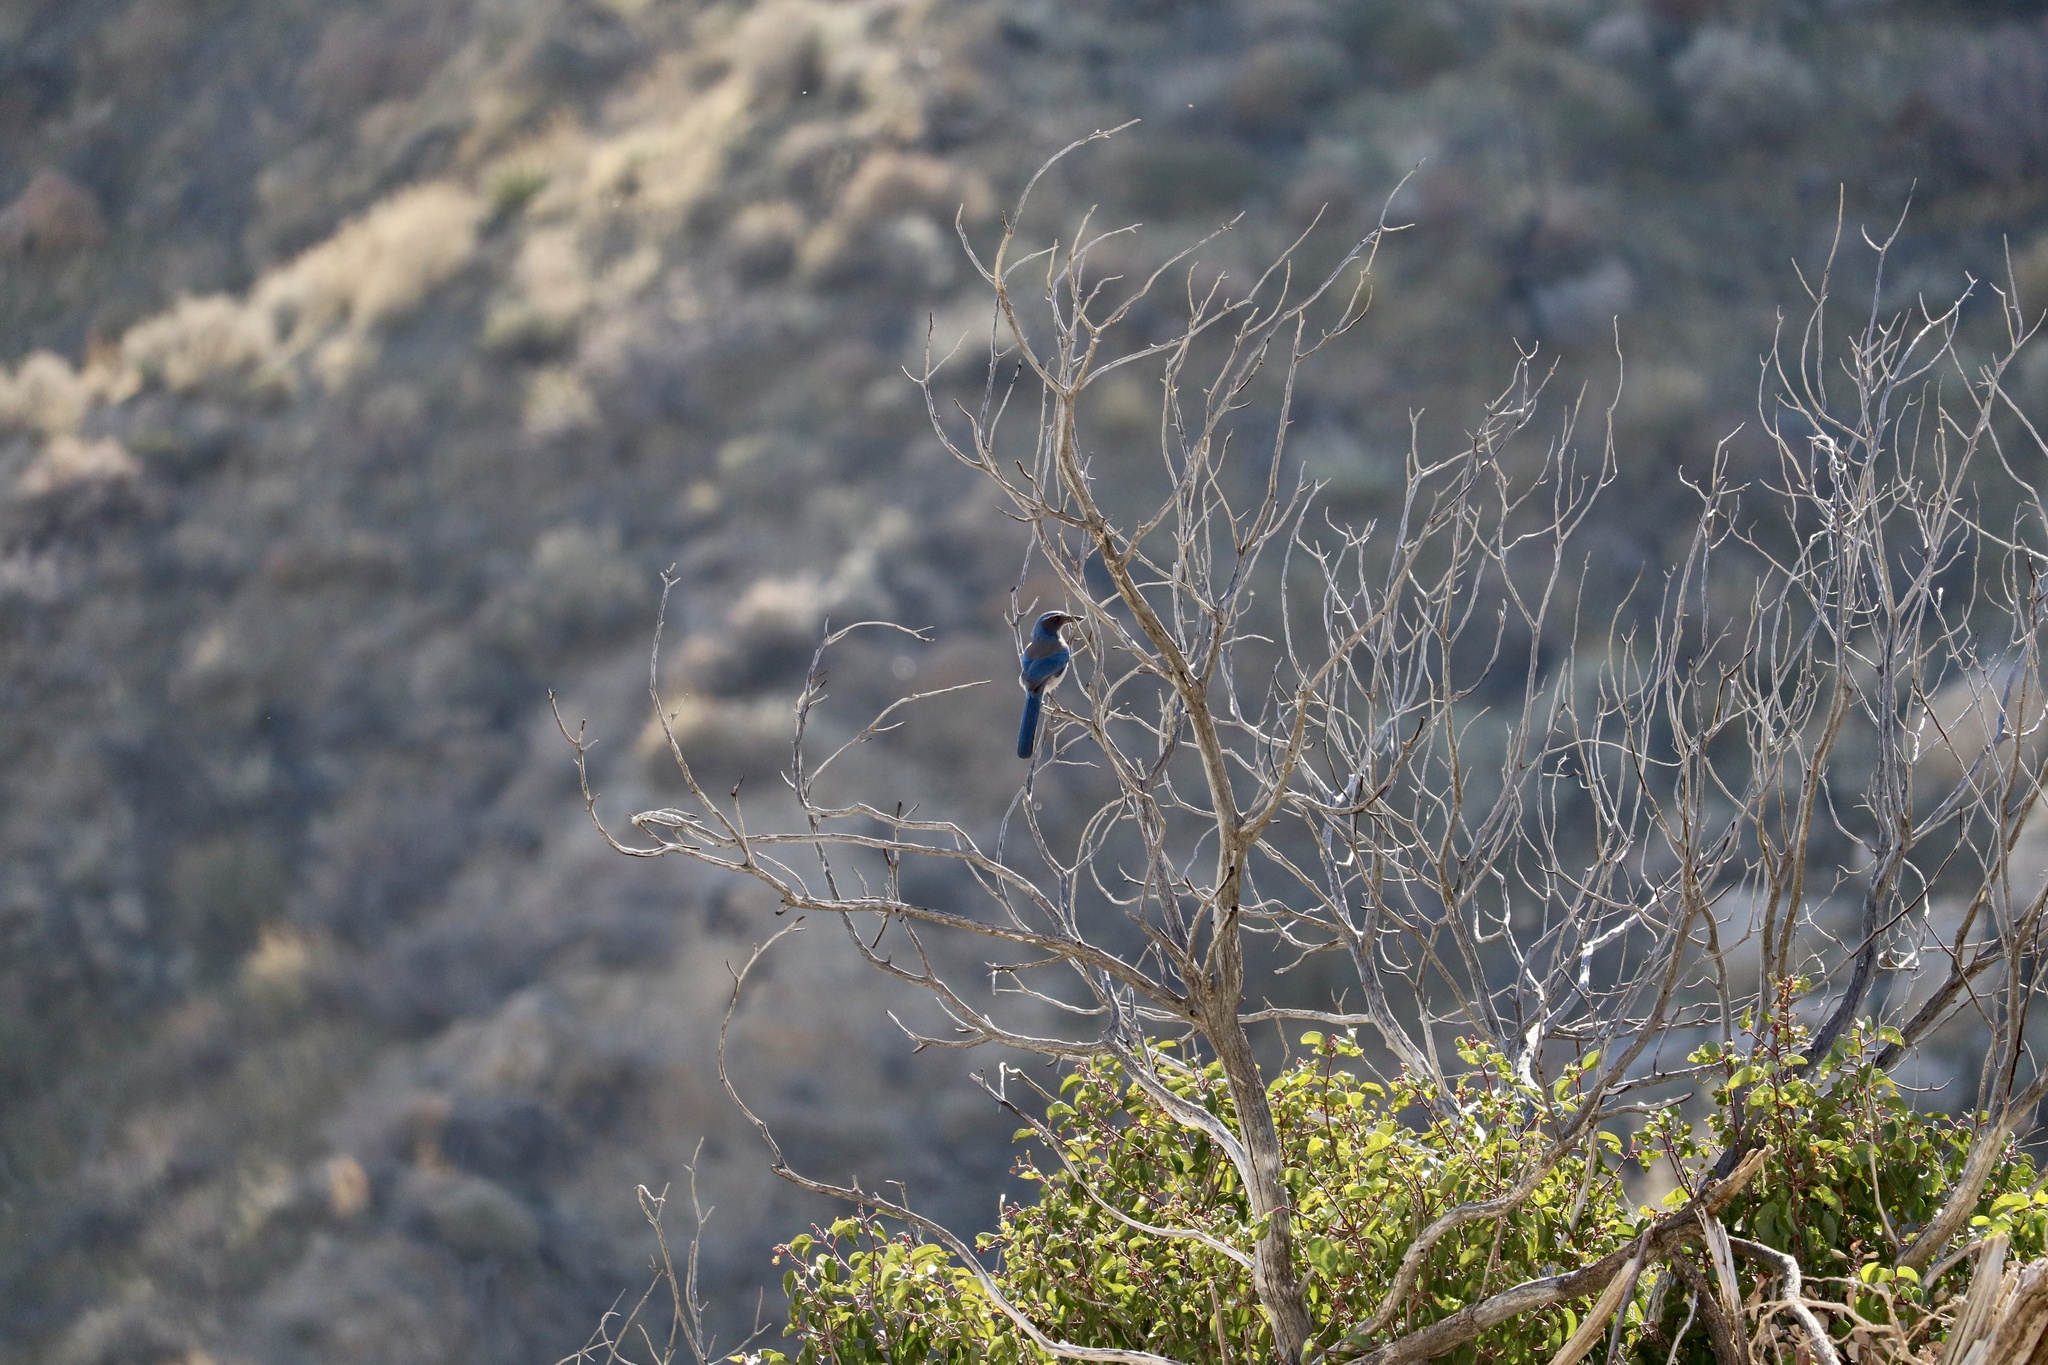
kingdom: Animalia
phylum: Chordata
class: Aves
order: Passeriformes
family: Corvidae
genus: Aphelocoma
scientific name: Aphelocoma californica
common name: California scrub-jay
